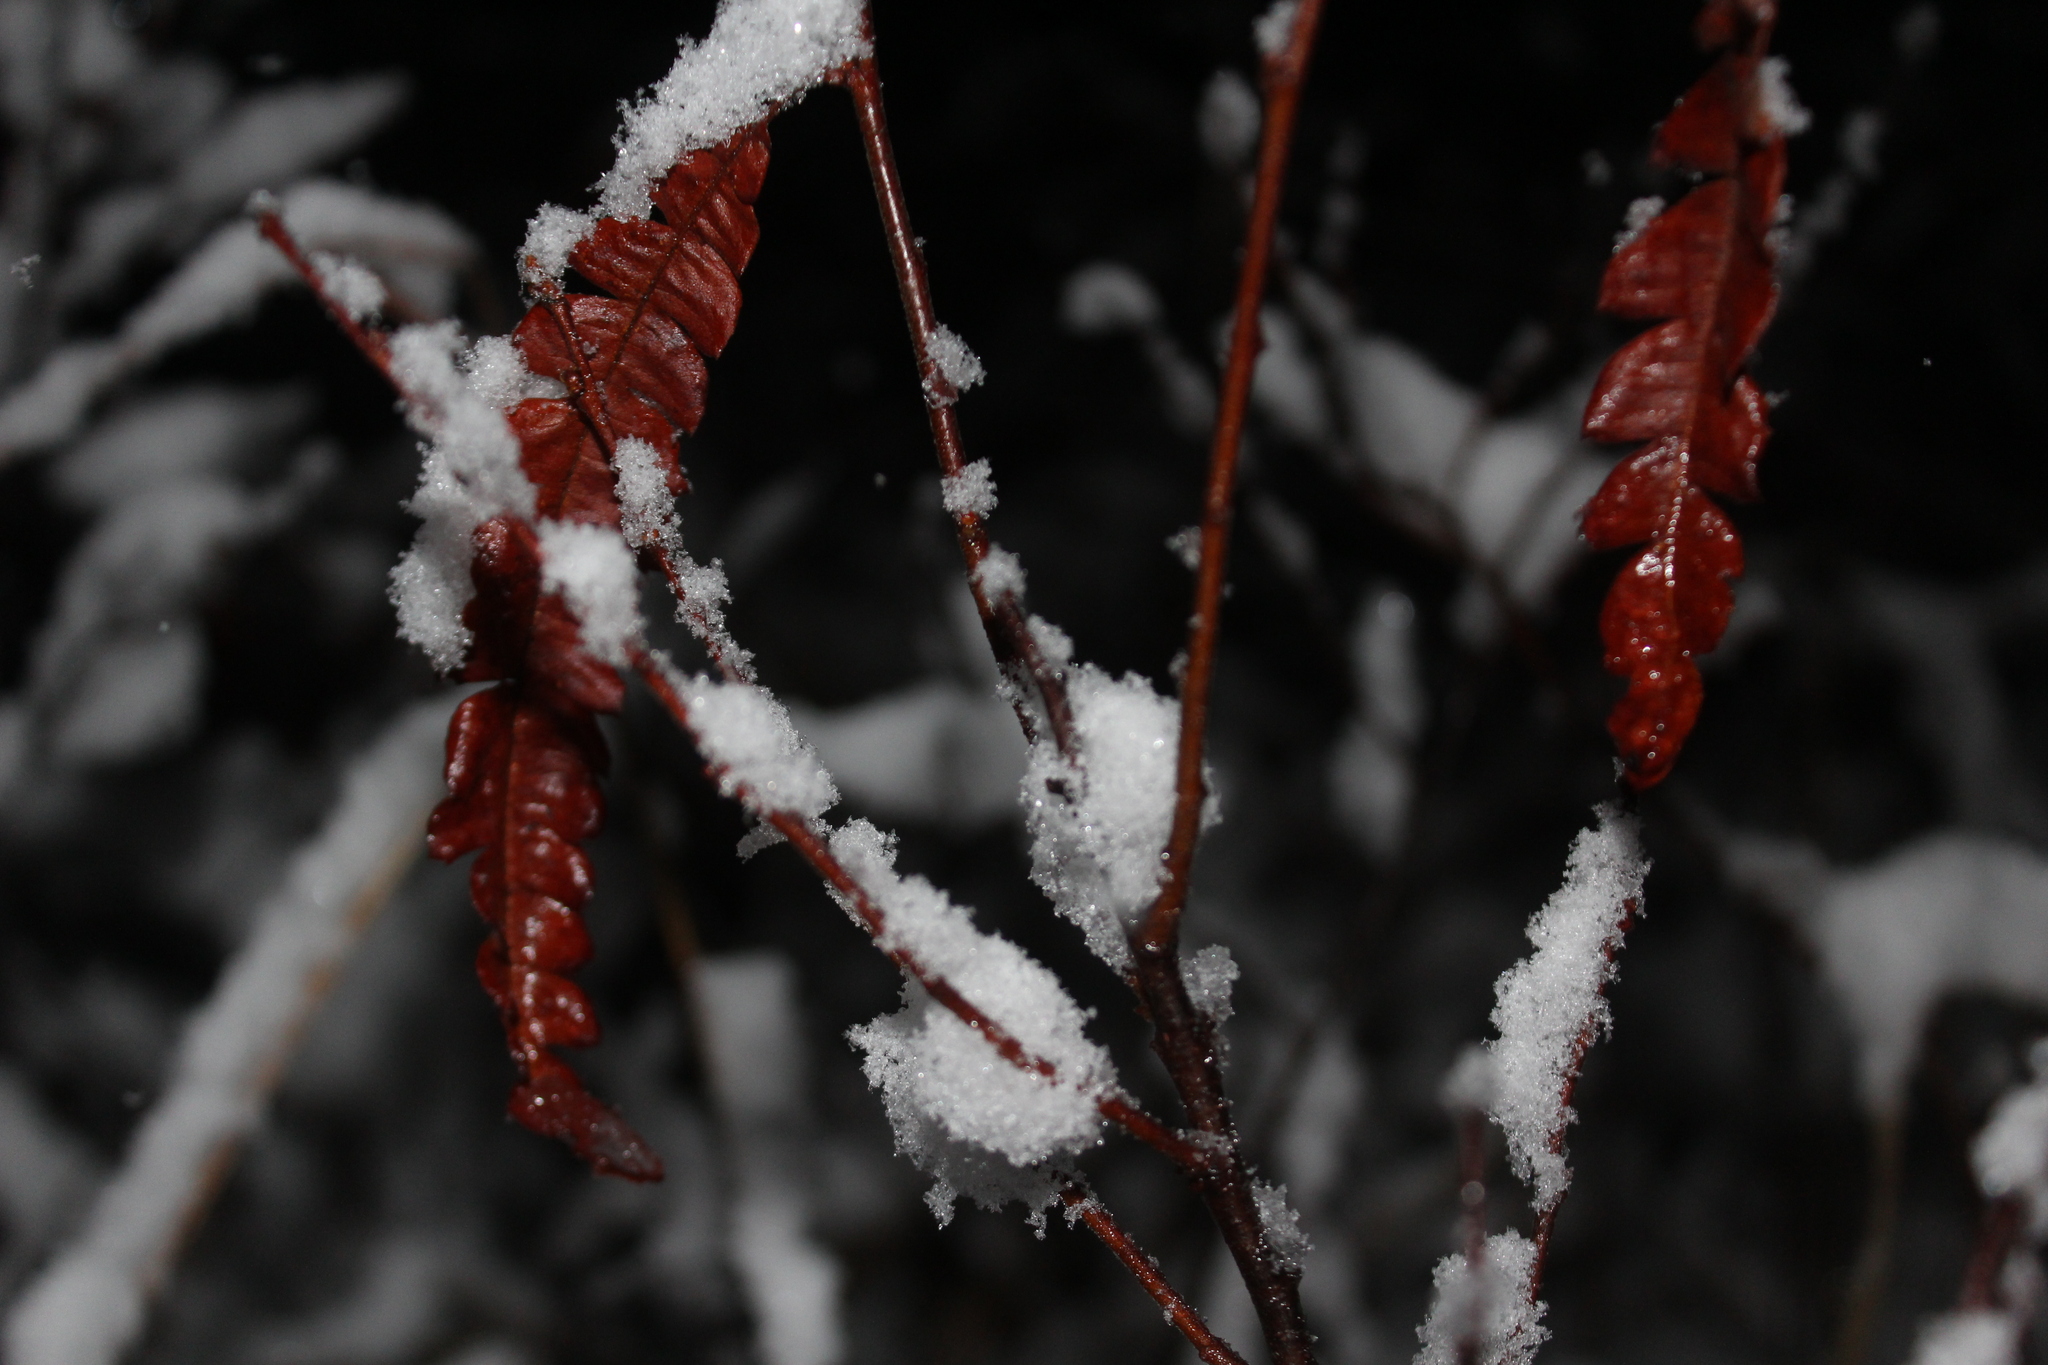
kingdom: Plantae
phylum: Tracheophyta
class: Magnoliopsida
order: Fagales
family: Myricaceae
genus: Comptonia
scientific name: Comptonia peregrina
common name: Sweet-fern
